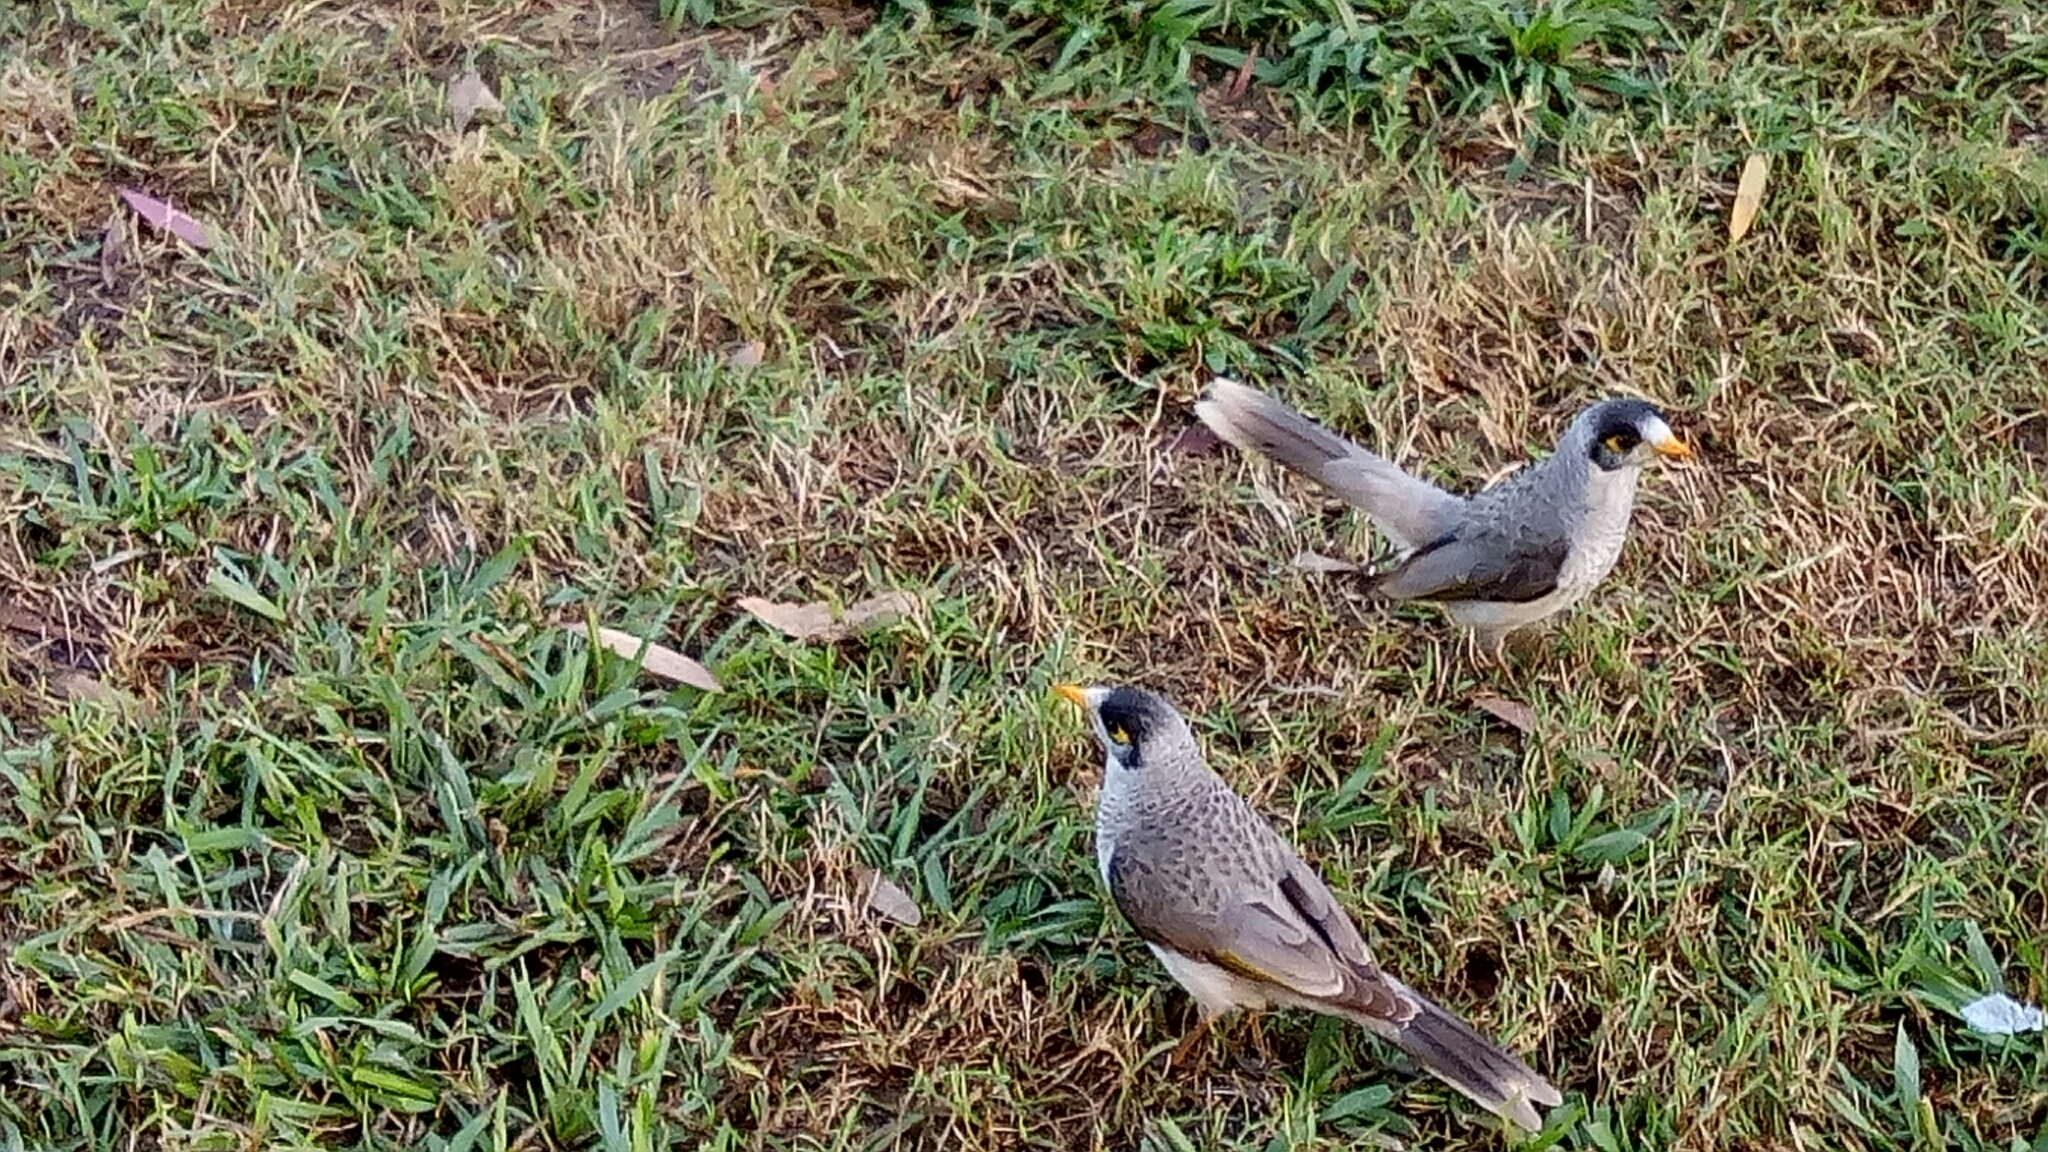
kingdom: Animalia
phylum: Chordata
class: Aves
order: Passeriformes
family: Meliphagidae
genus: Manorina
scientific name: Manorina melanocephala
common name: Noisy miner
